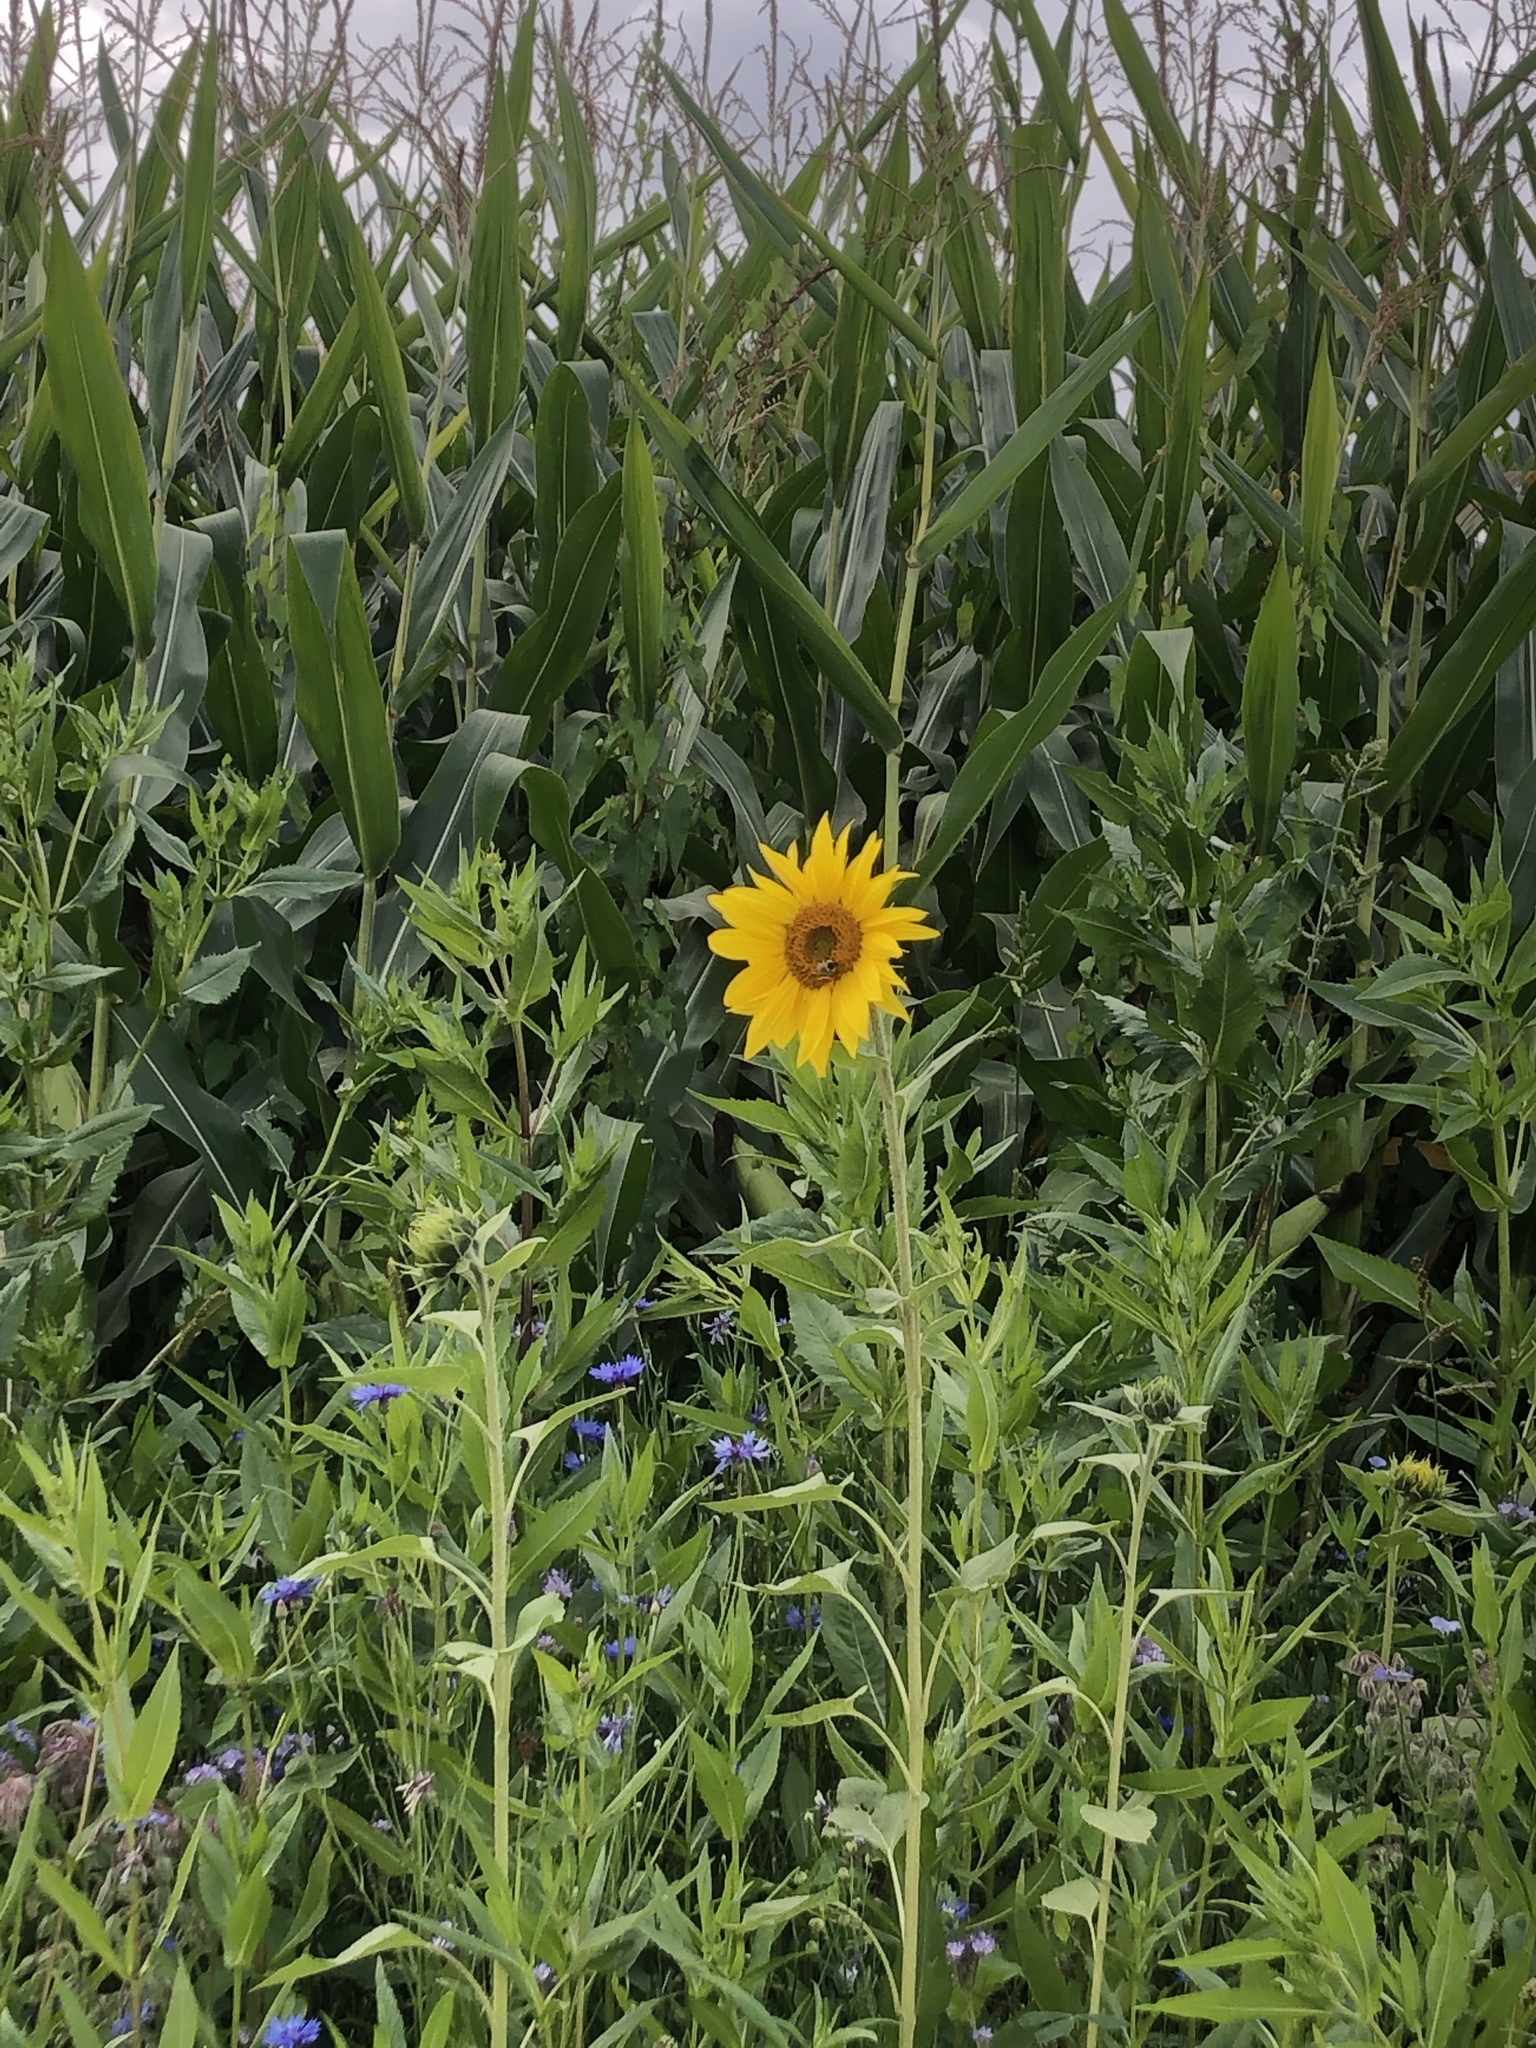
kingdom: Plantae
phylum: Tracheophyta
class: Magnoliopsida
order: Asterales
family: Asteraceae
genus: Helianthus
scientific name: Helianthus annuus
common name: Sunflower
